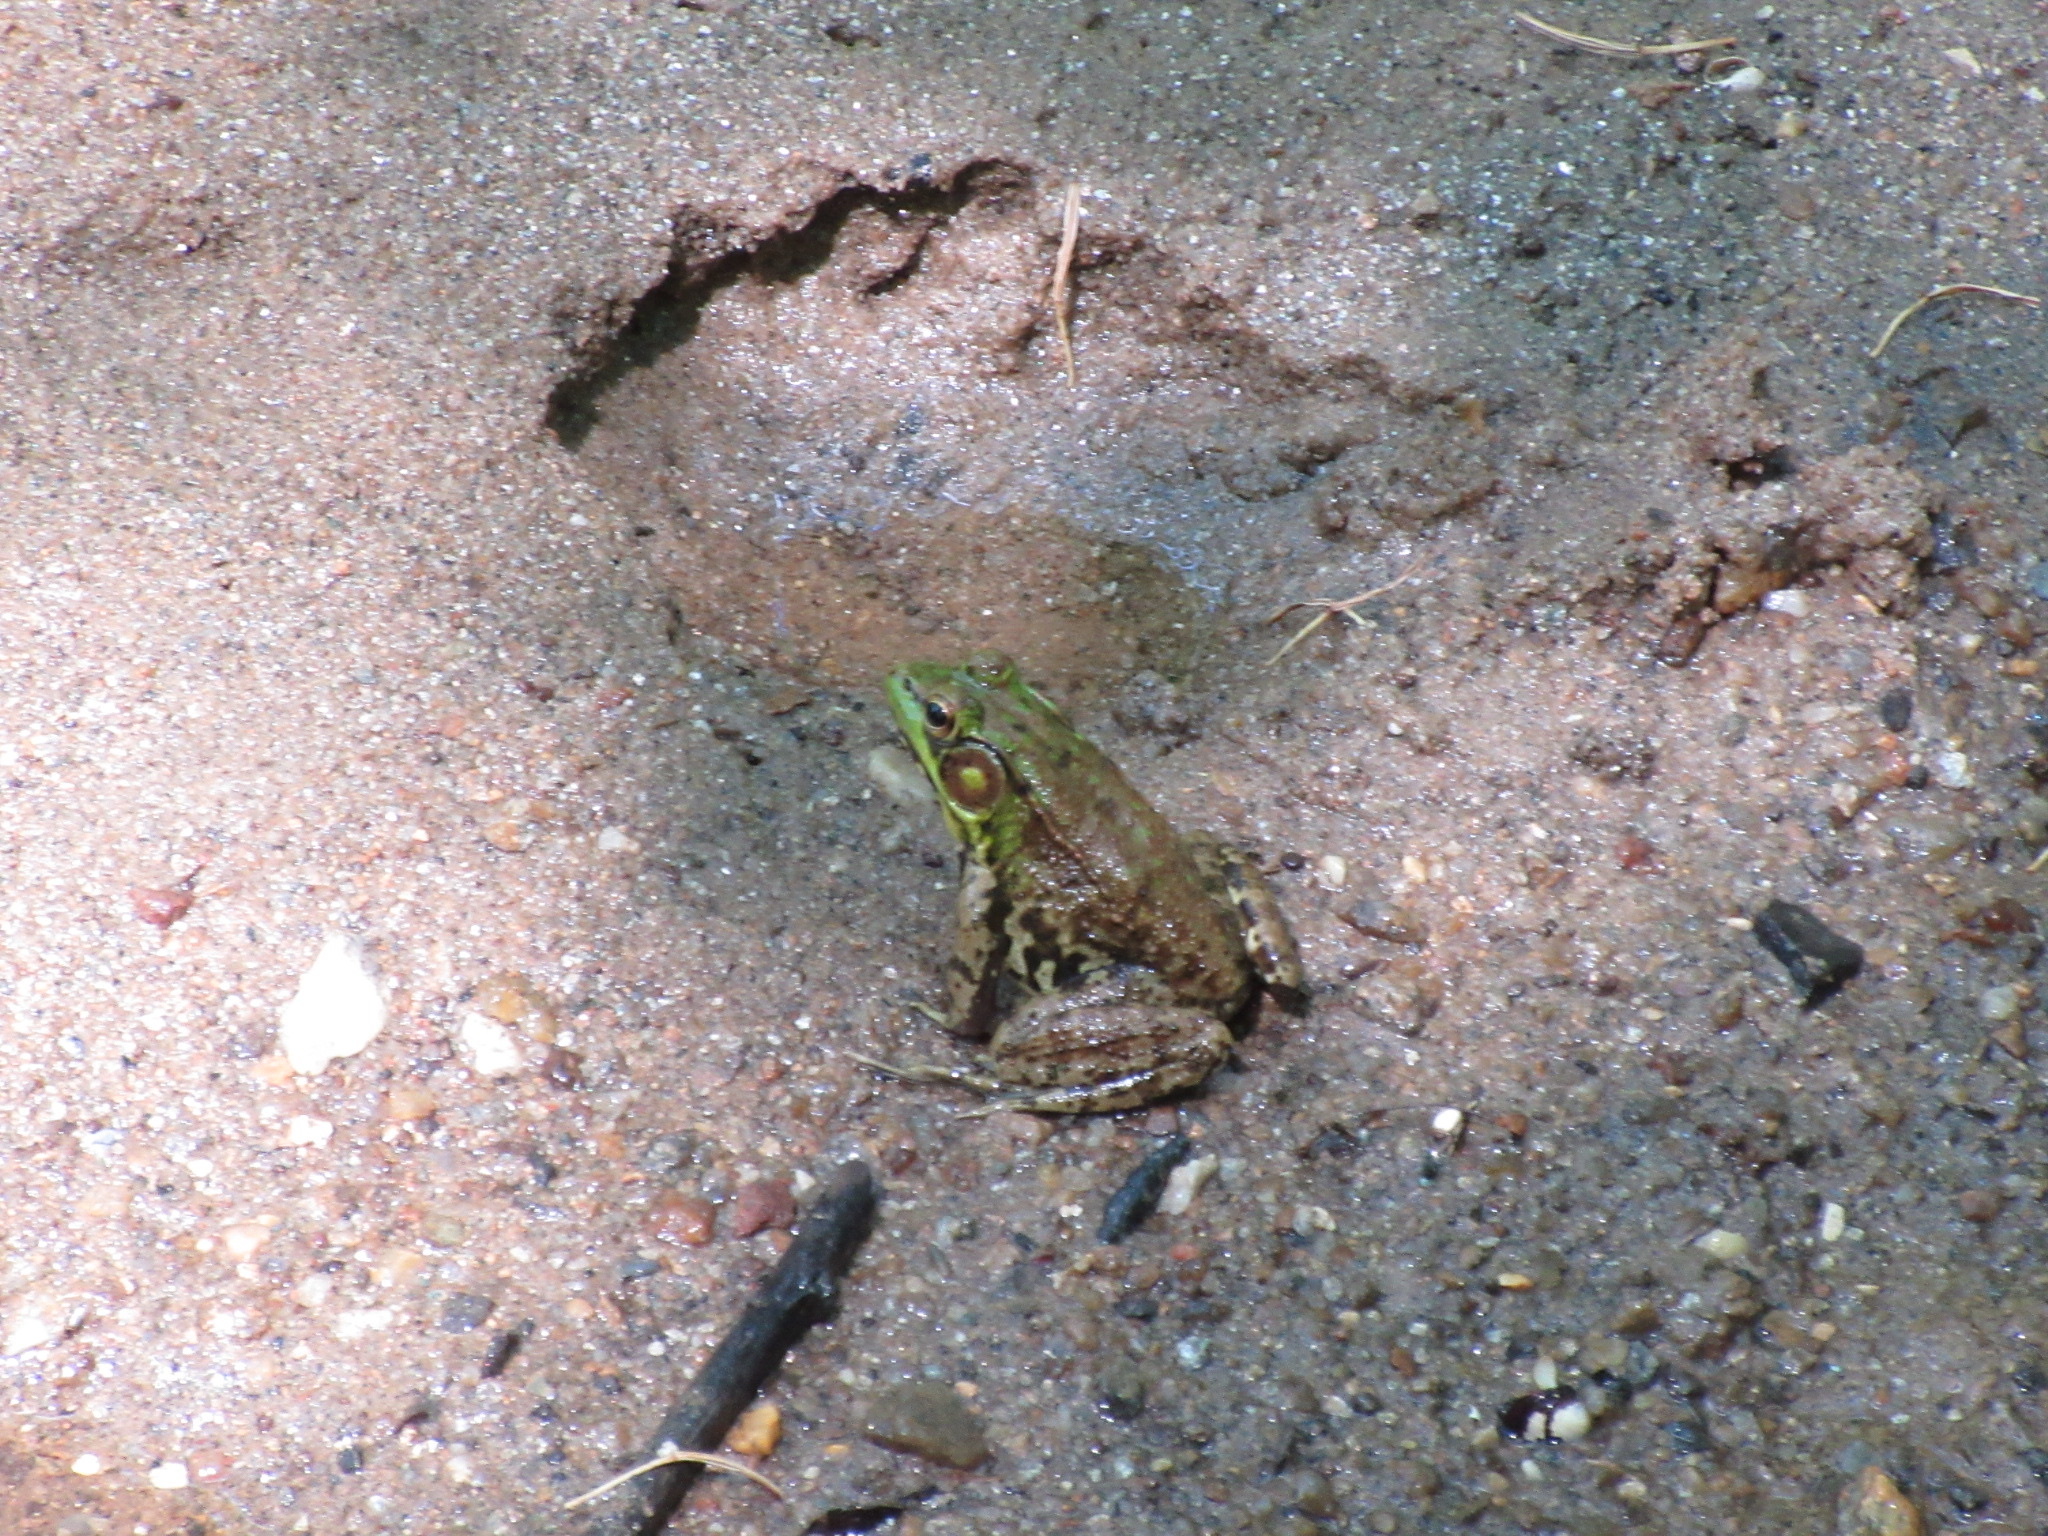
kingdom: Animalia
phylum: Chordata
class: Amphibia
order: Anura
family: Ranidae
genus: Lithobates
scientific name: Lithobates clamitans
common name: Green frog
